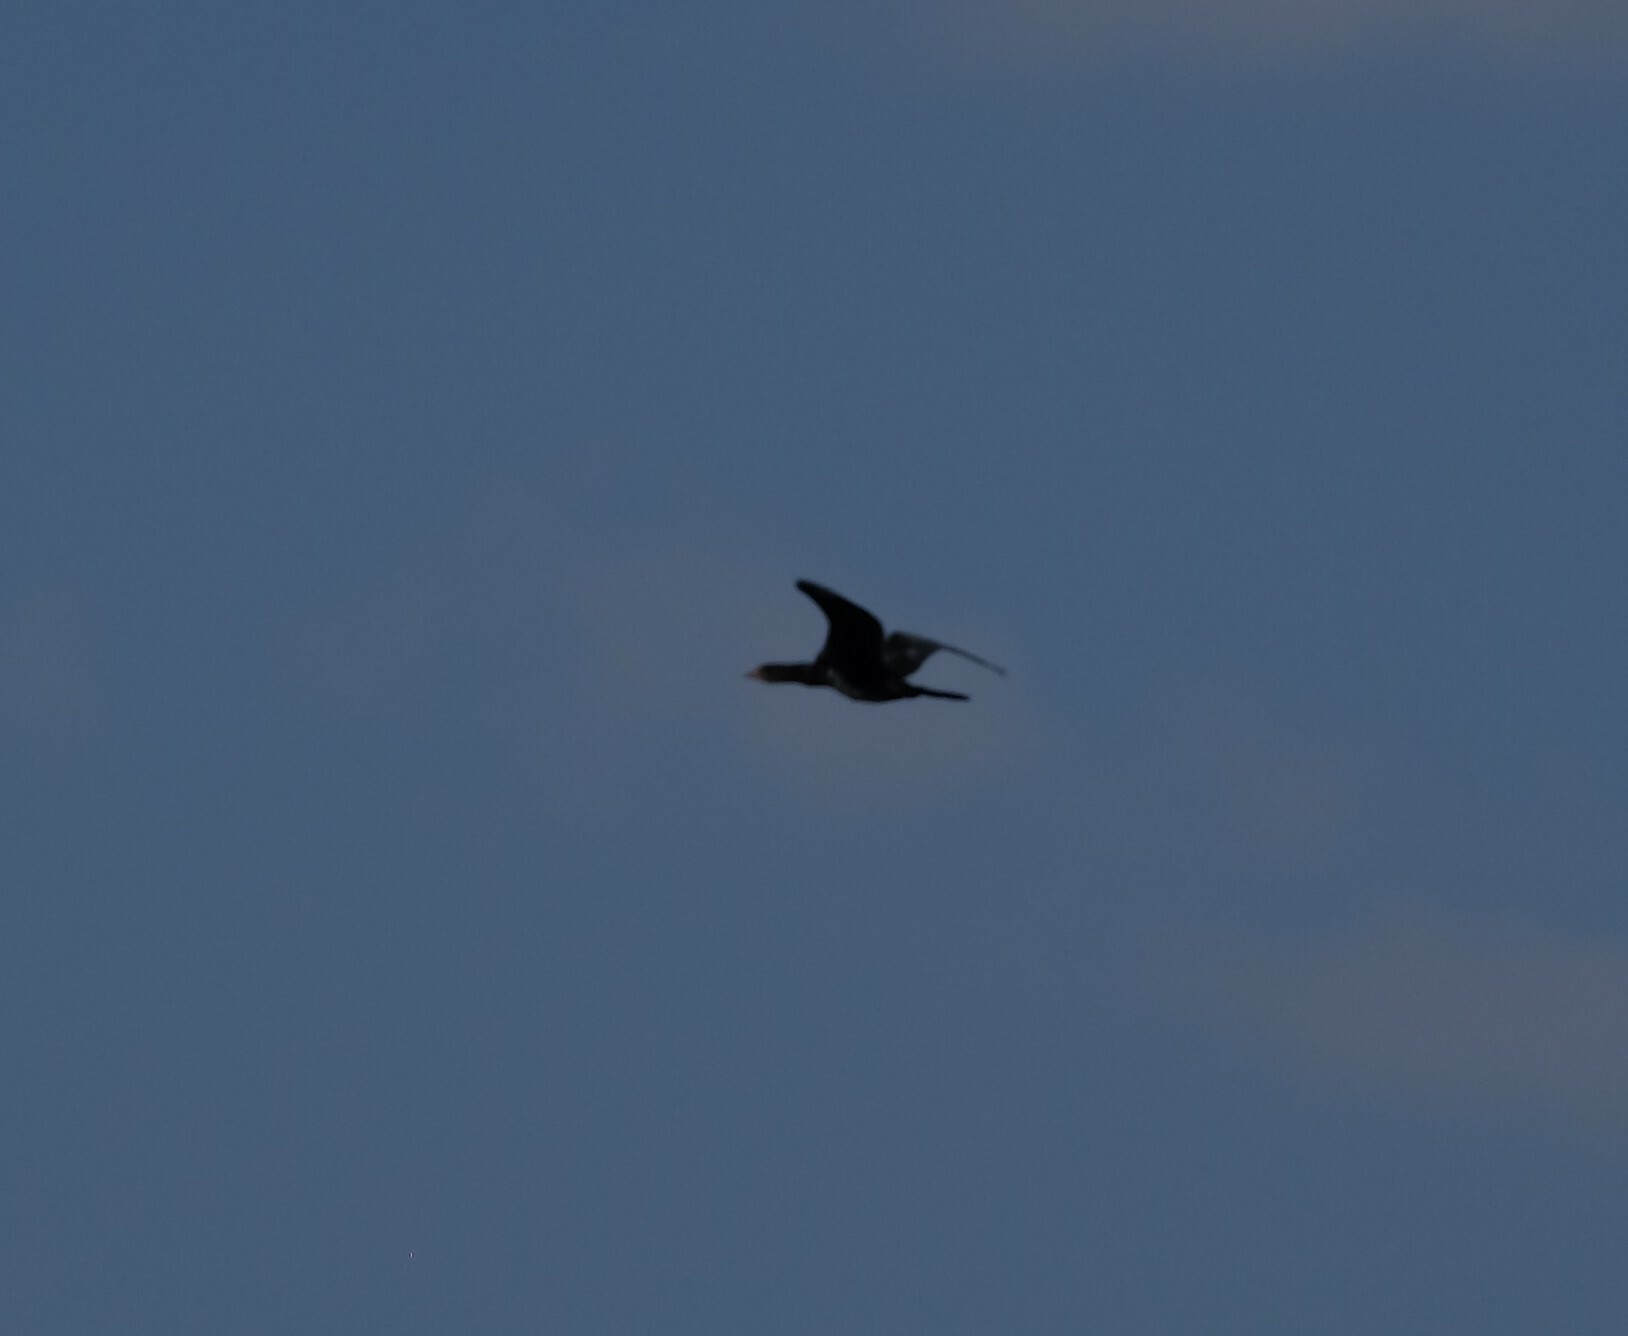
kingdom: Animalia
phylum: Chordata
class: Aves
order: Suliformes
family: Phalacrocoracidae
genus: Microcarbo
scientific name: Microcarbo africanus
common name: Long-tailed cormorant
